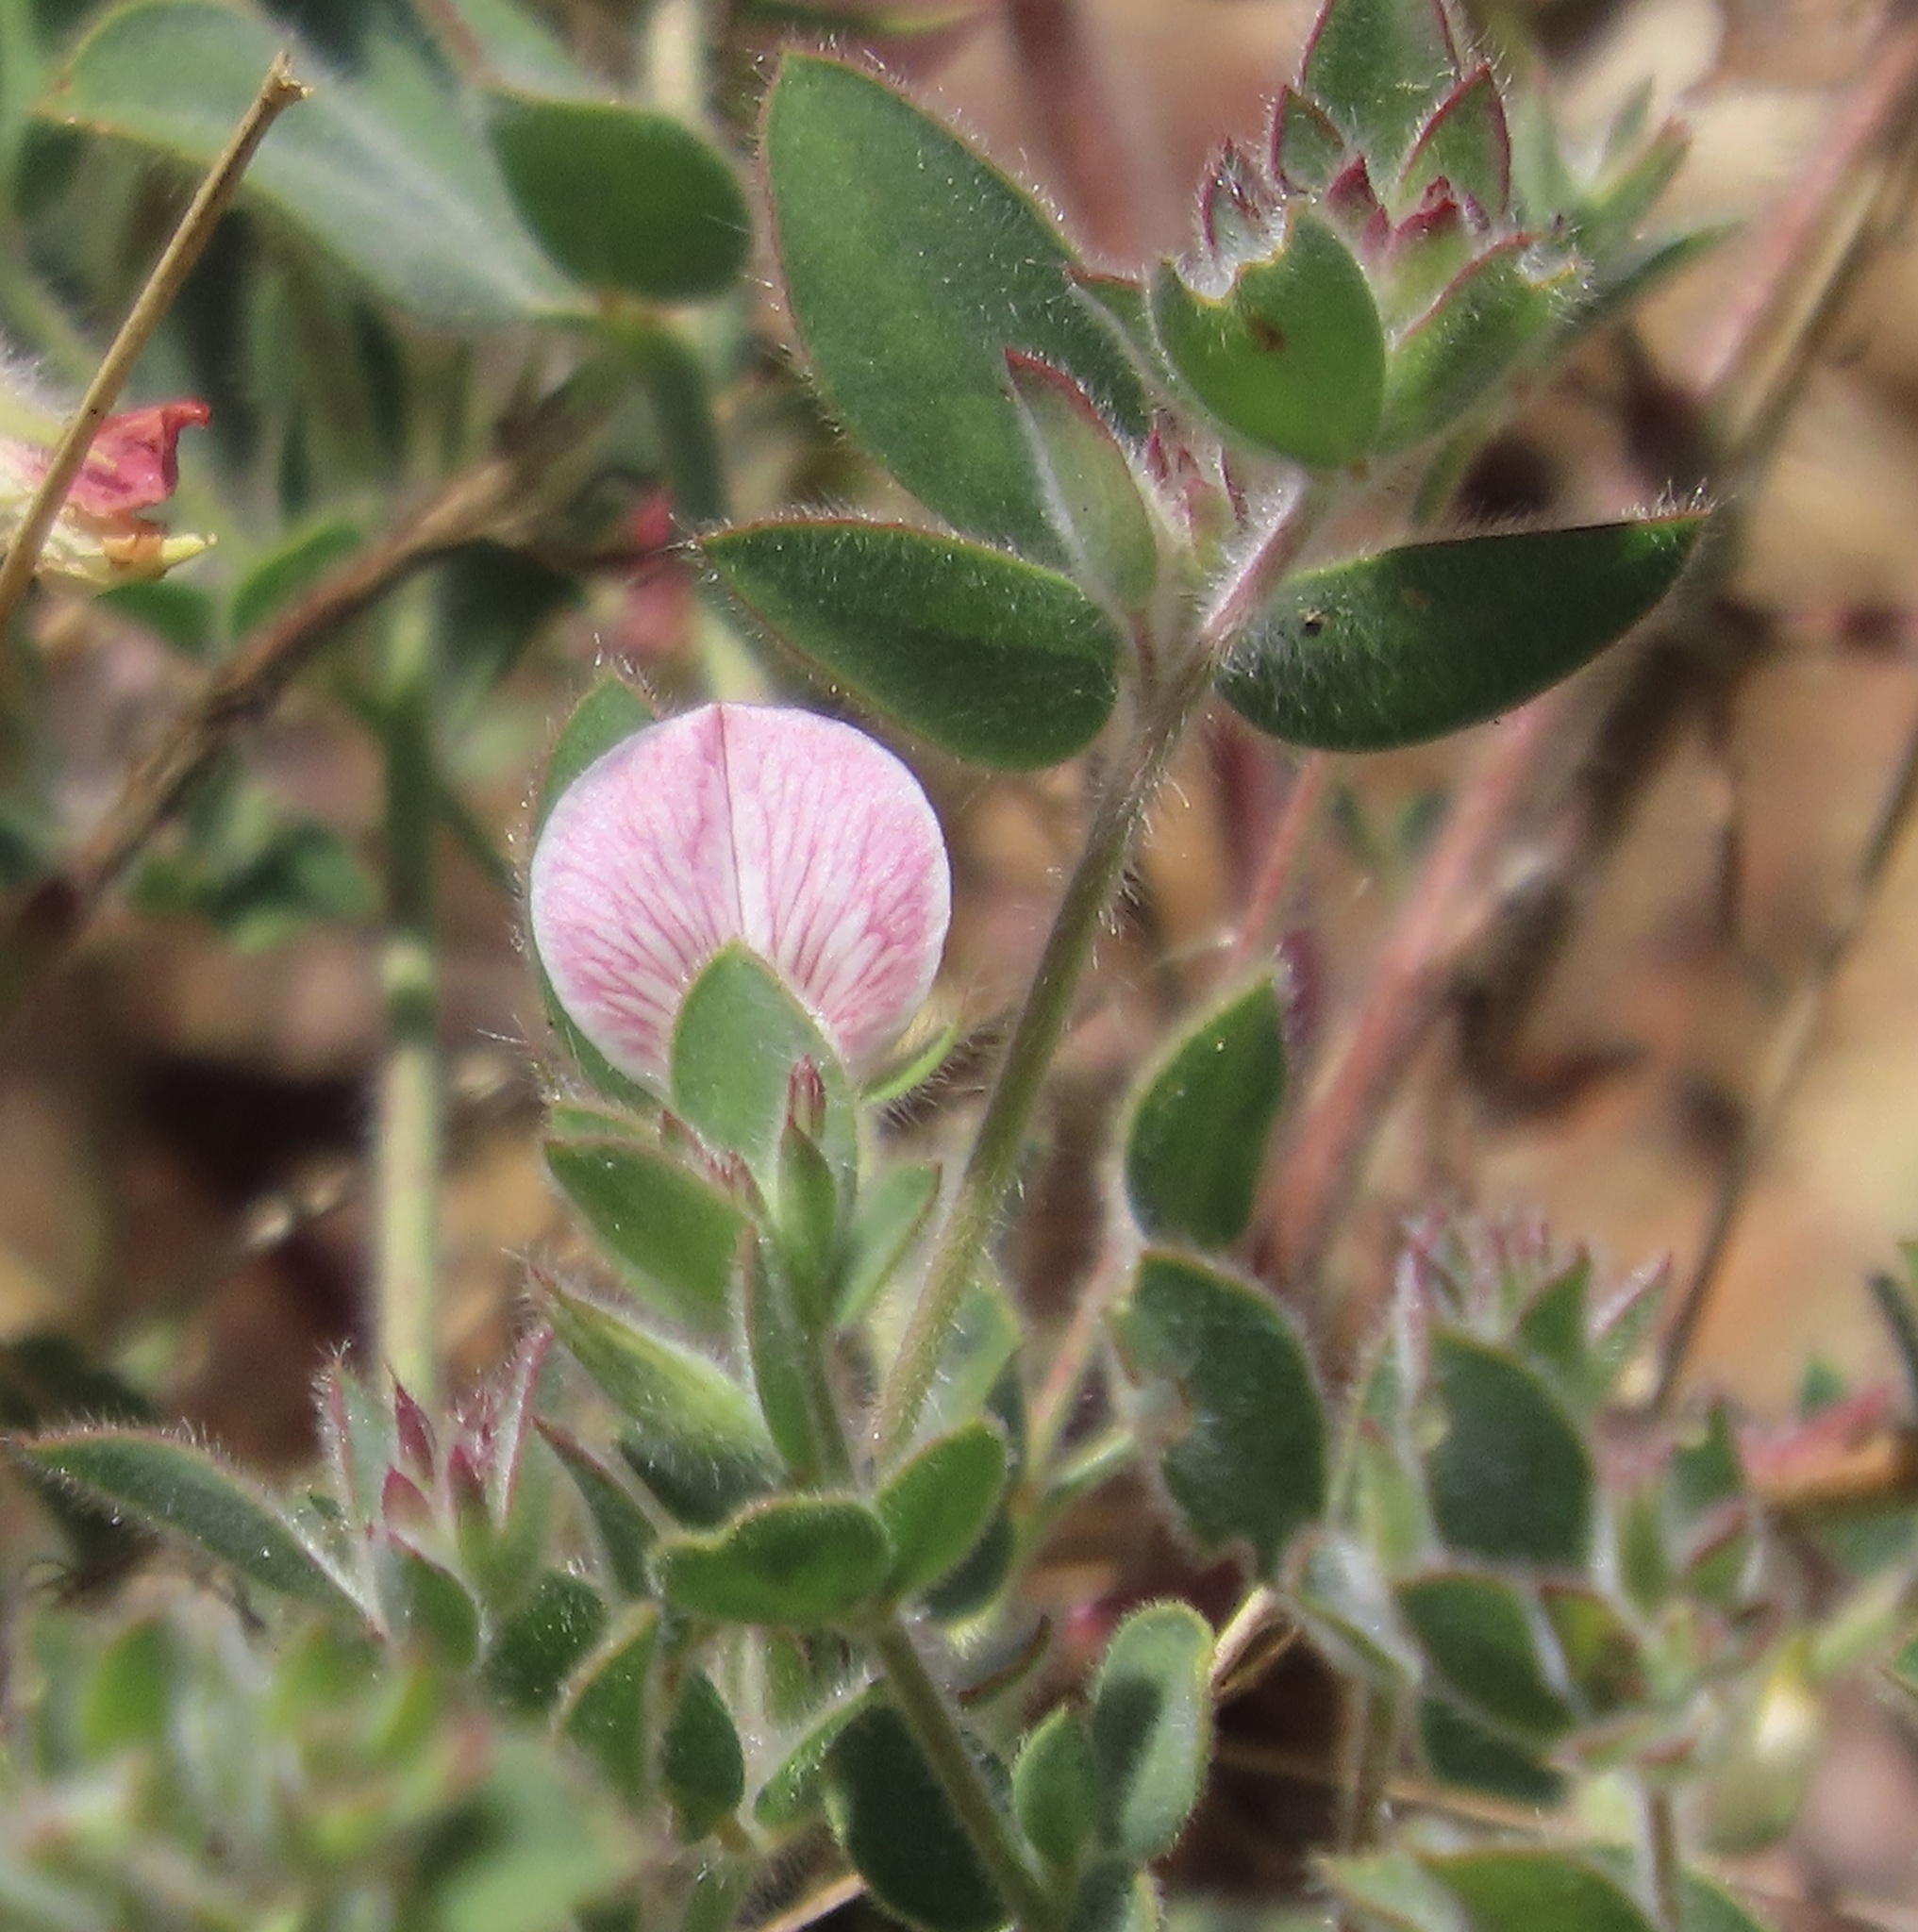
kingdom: Plantae
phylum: Tracheophyta
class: Magnoliopsida
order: Fabales
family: Fabaceae
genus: Acmispon
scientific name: Acmispon americanus
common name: American bird's-foot trefoil
